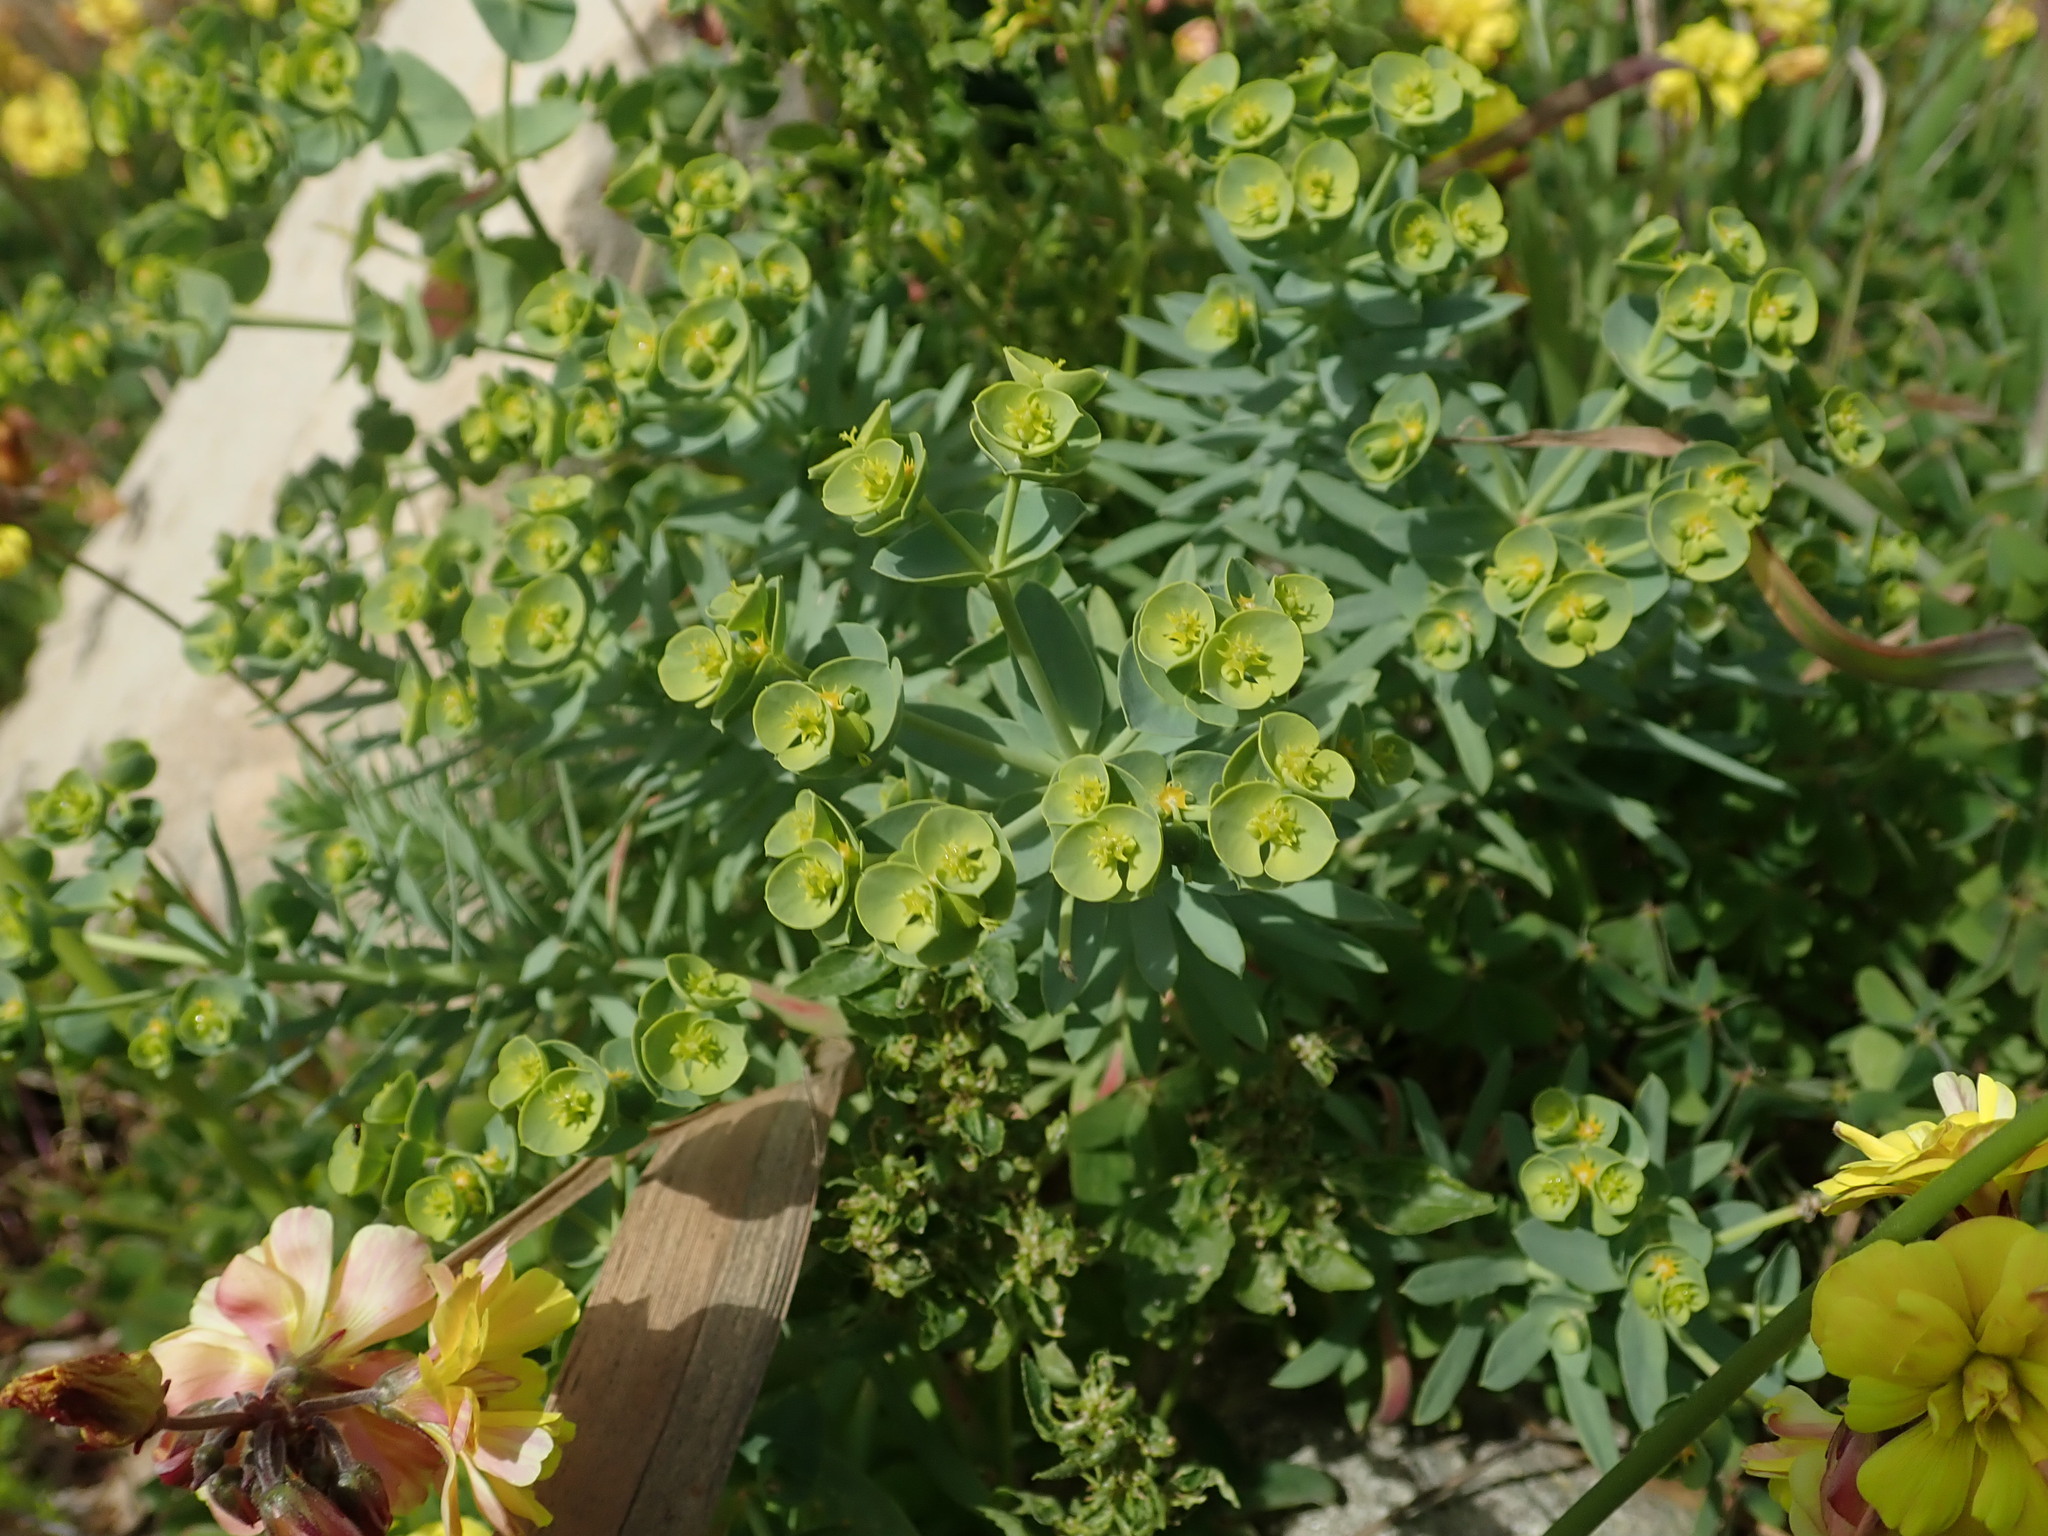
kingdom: Plantae
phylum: Tracheophyta
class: Magnoliopsida
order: Malpighiales
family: Euphorbiaceae
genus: Euphorbia
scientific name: Euphorbia segetalis
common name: Corn spurge
